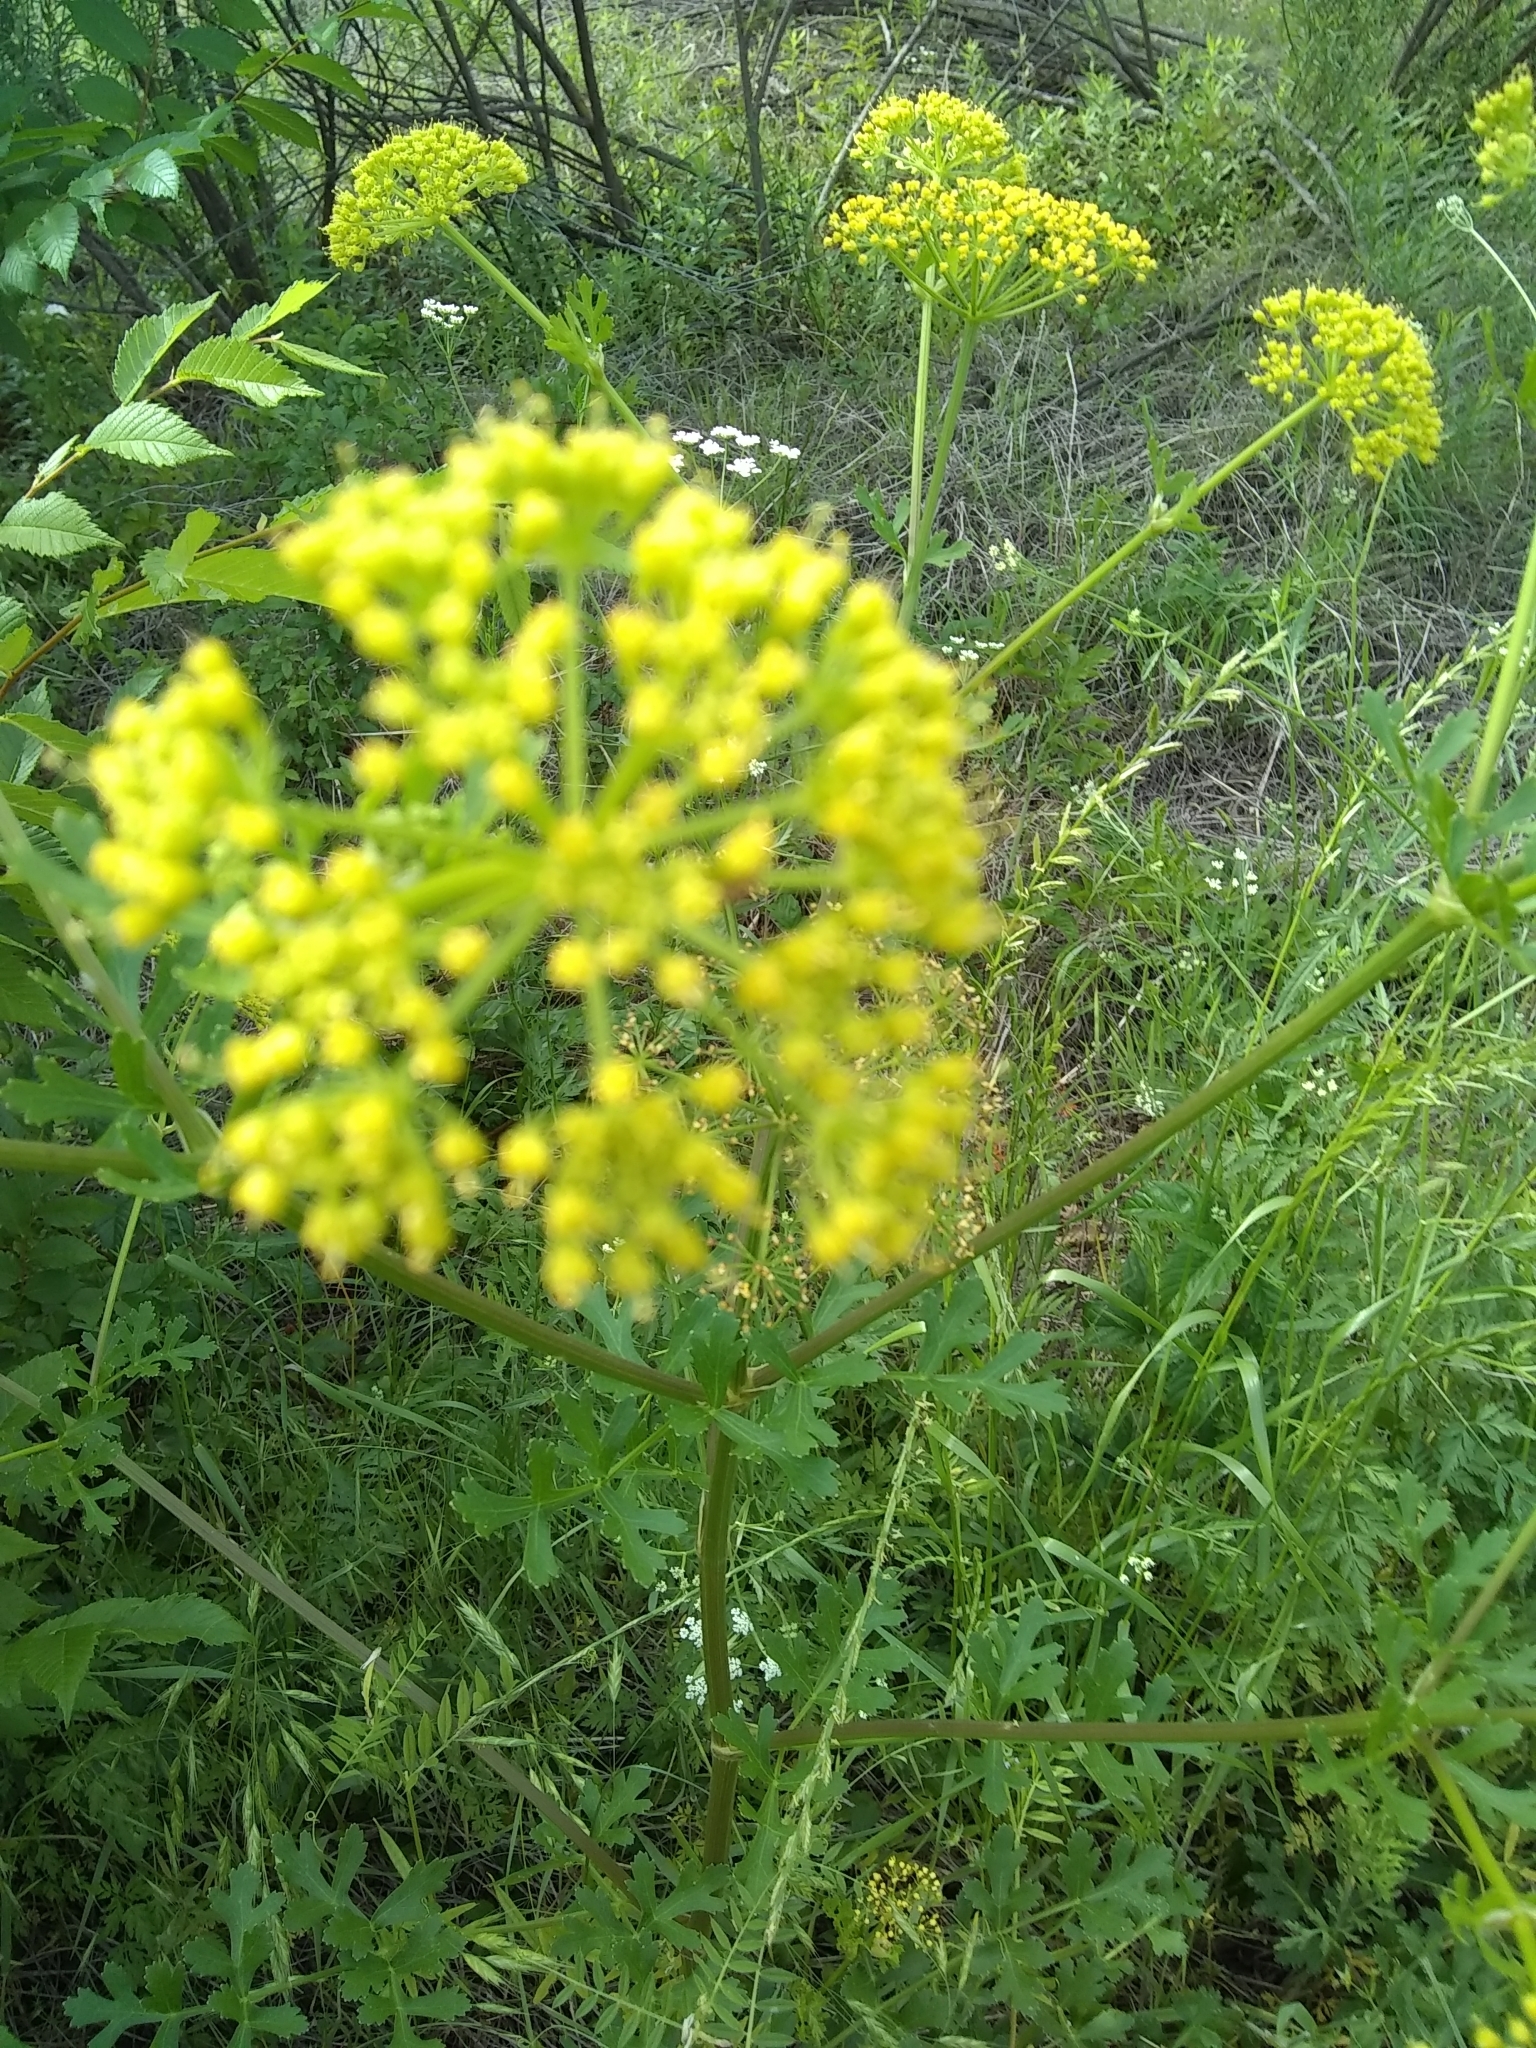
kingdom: Plantae
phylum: Tracheophyta
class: Magnoliopsida
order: Apiales
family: Apiaceae
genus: Polytaenia
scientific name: Polytaenia texana
